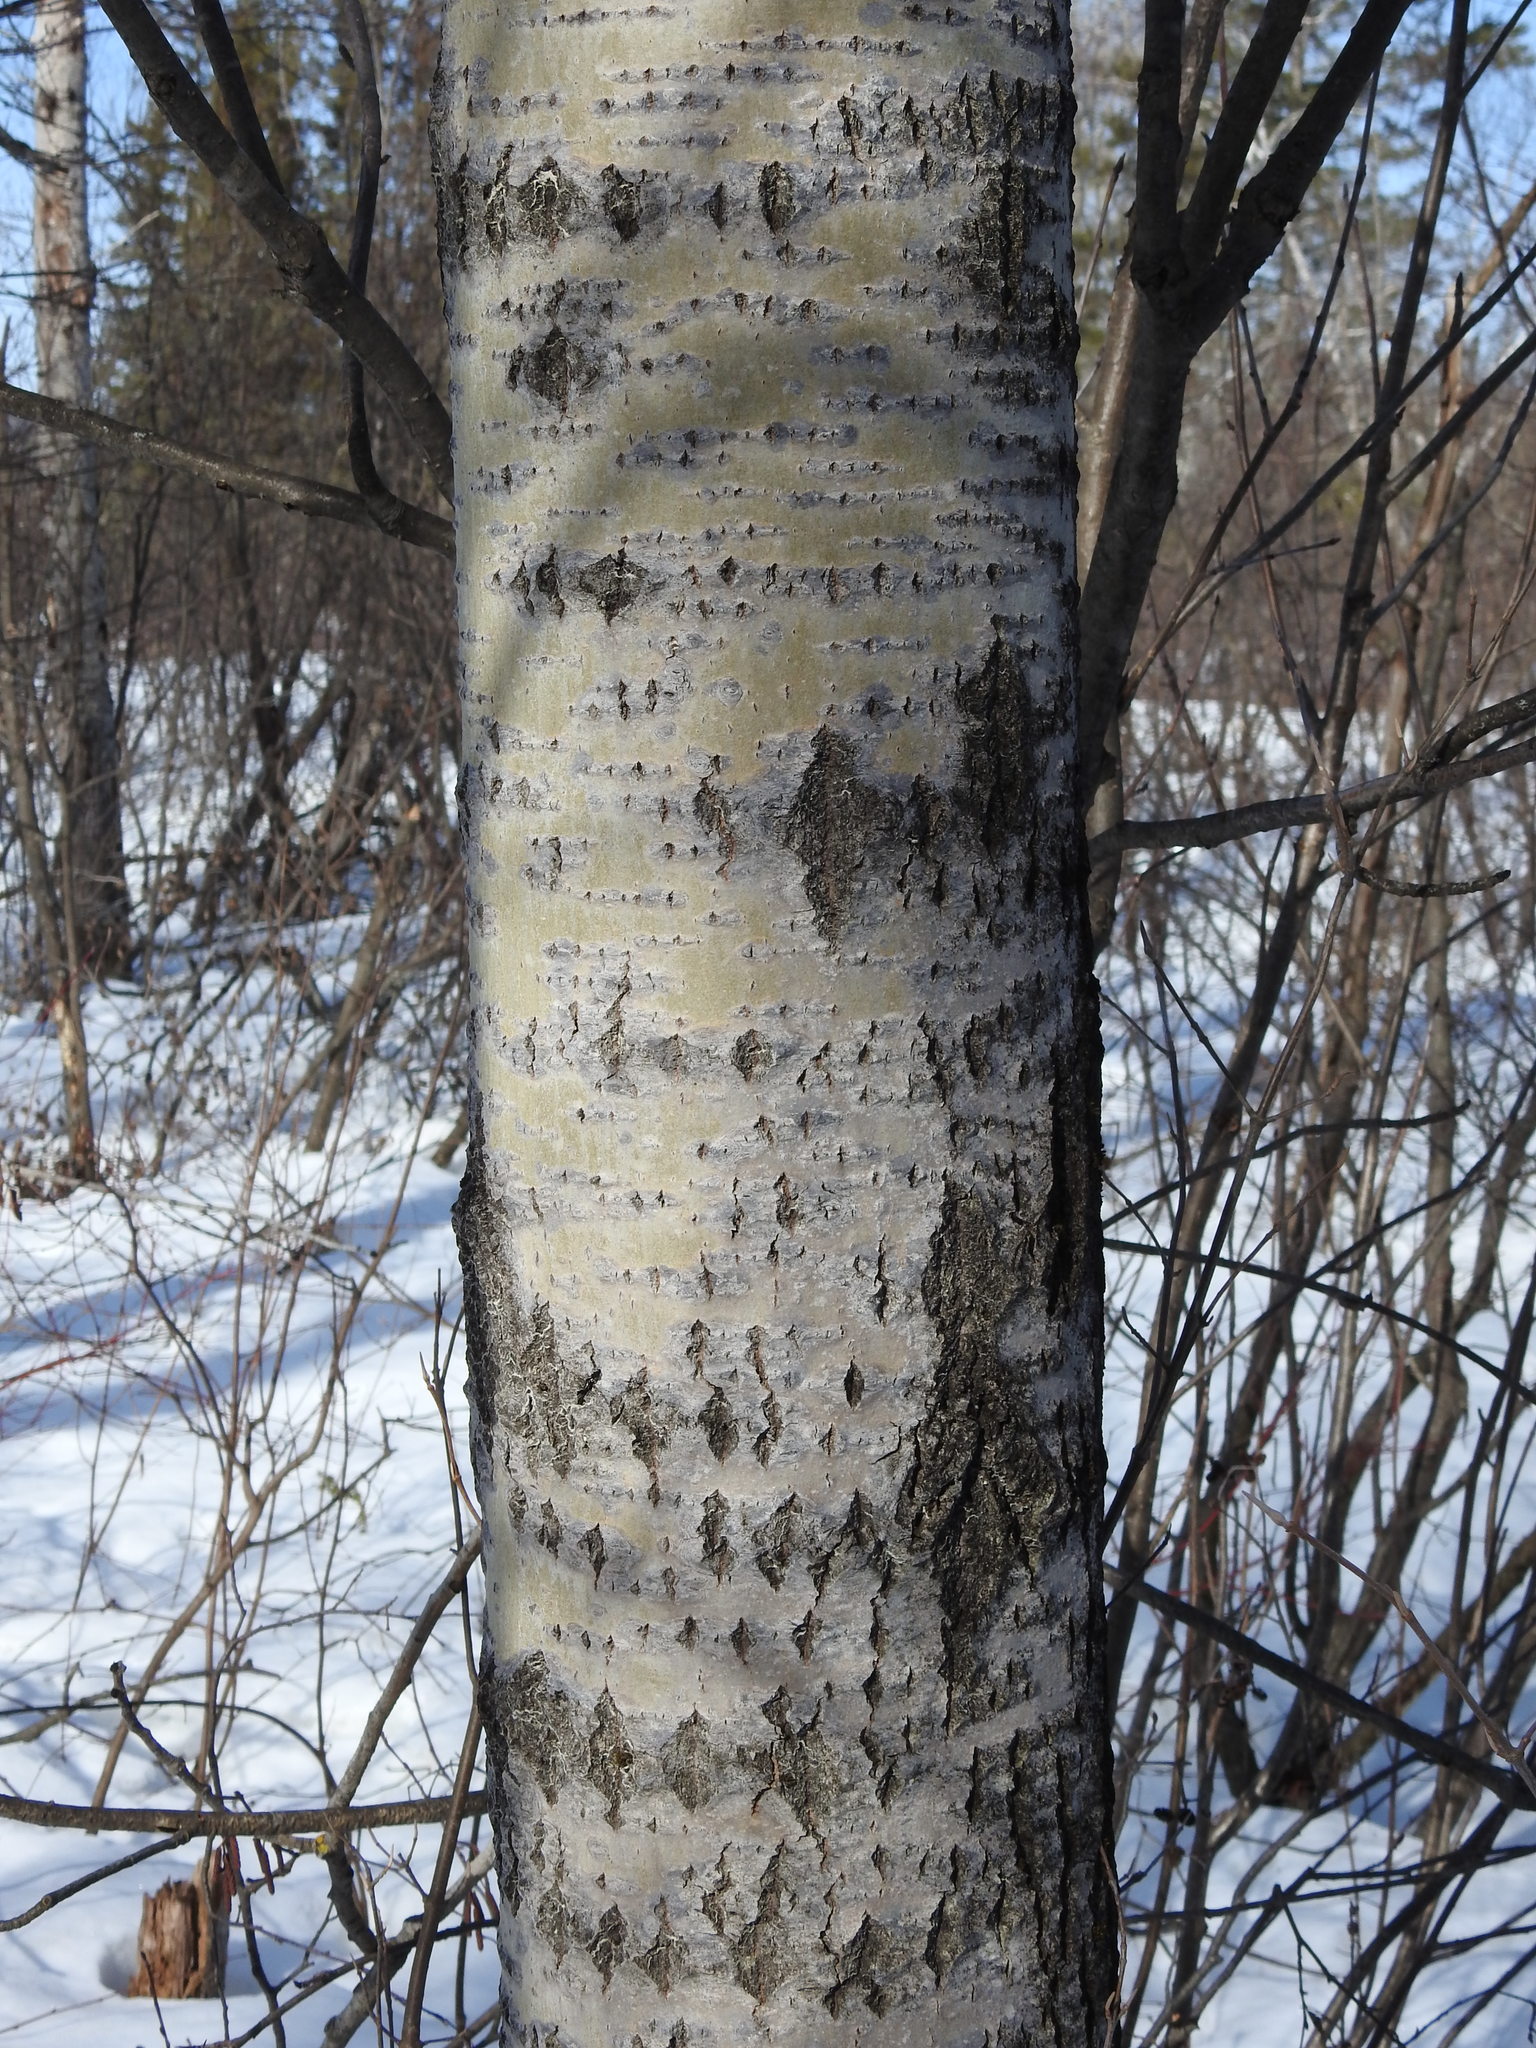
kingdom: Plantae
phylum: Tracheophyta
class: Magnoliopsida
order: Malpighiales
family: Salicaceae
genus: Populus
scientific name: Populus tremuloides
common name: Quaking aspen
